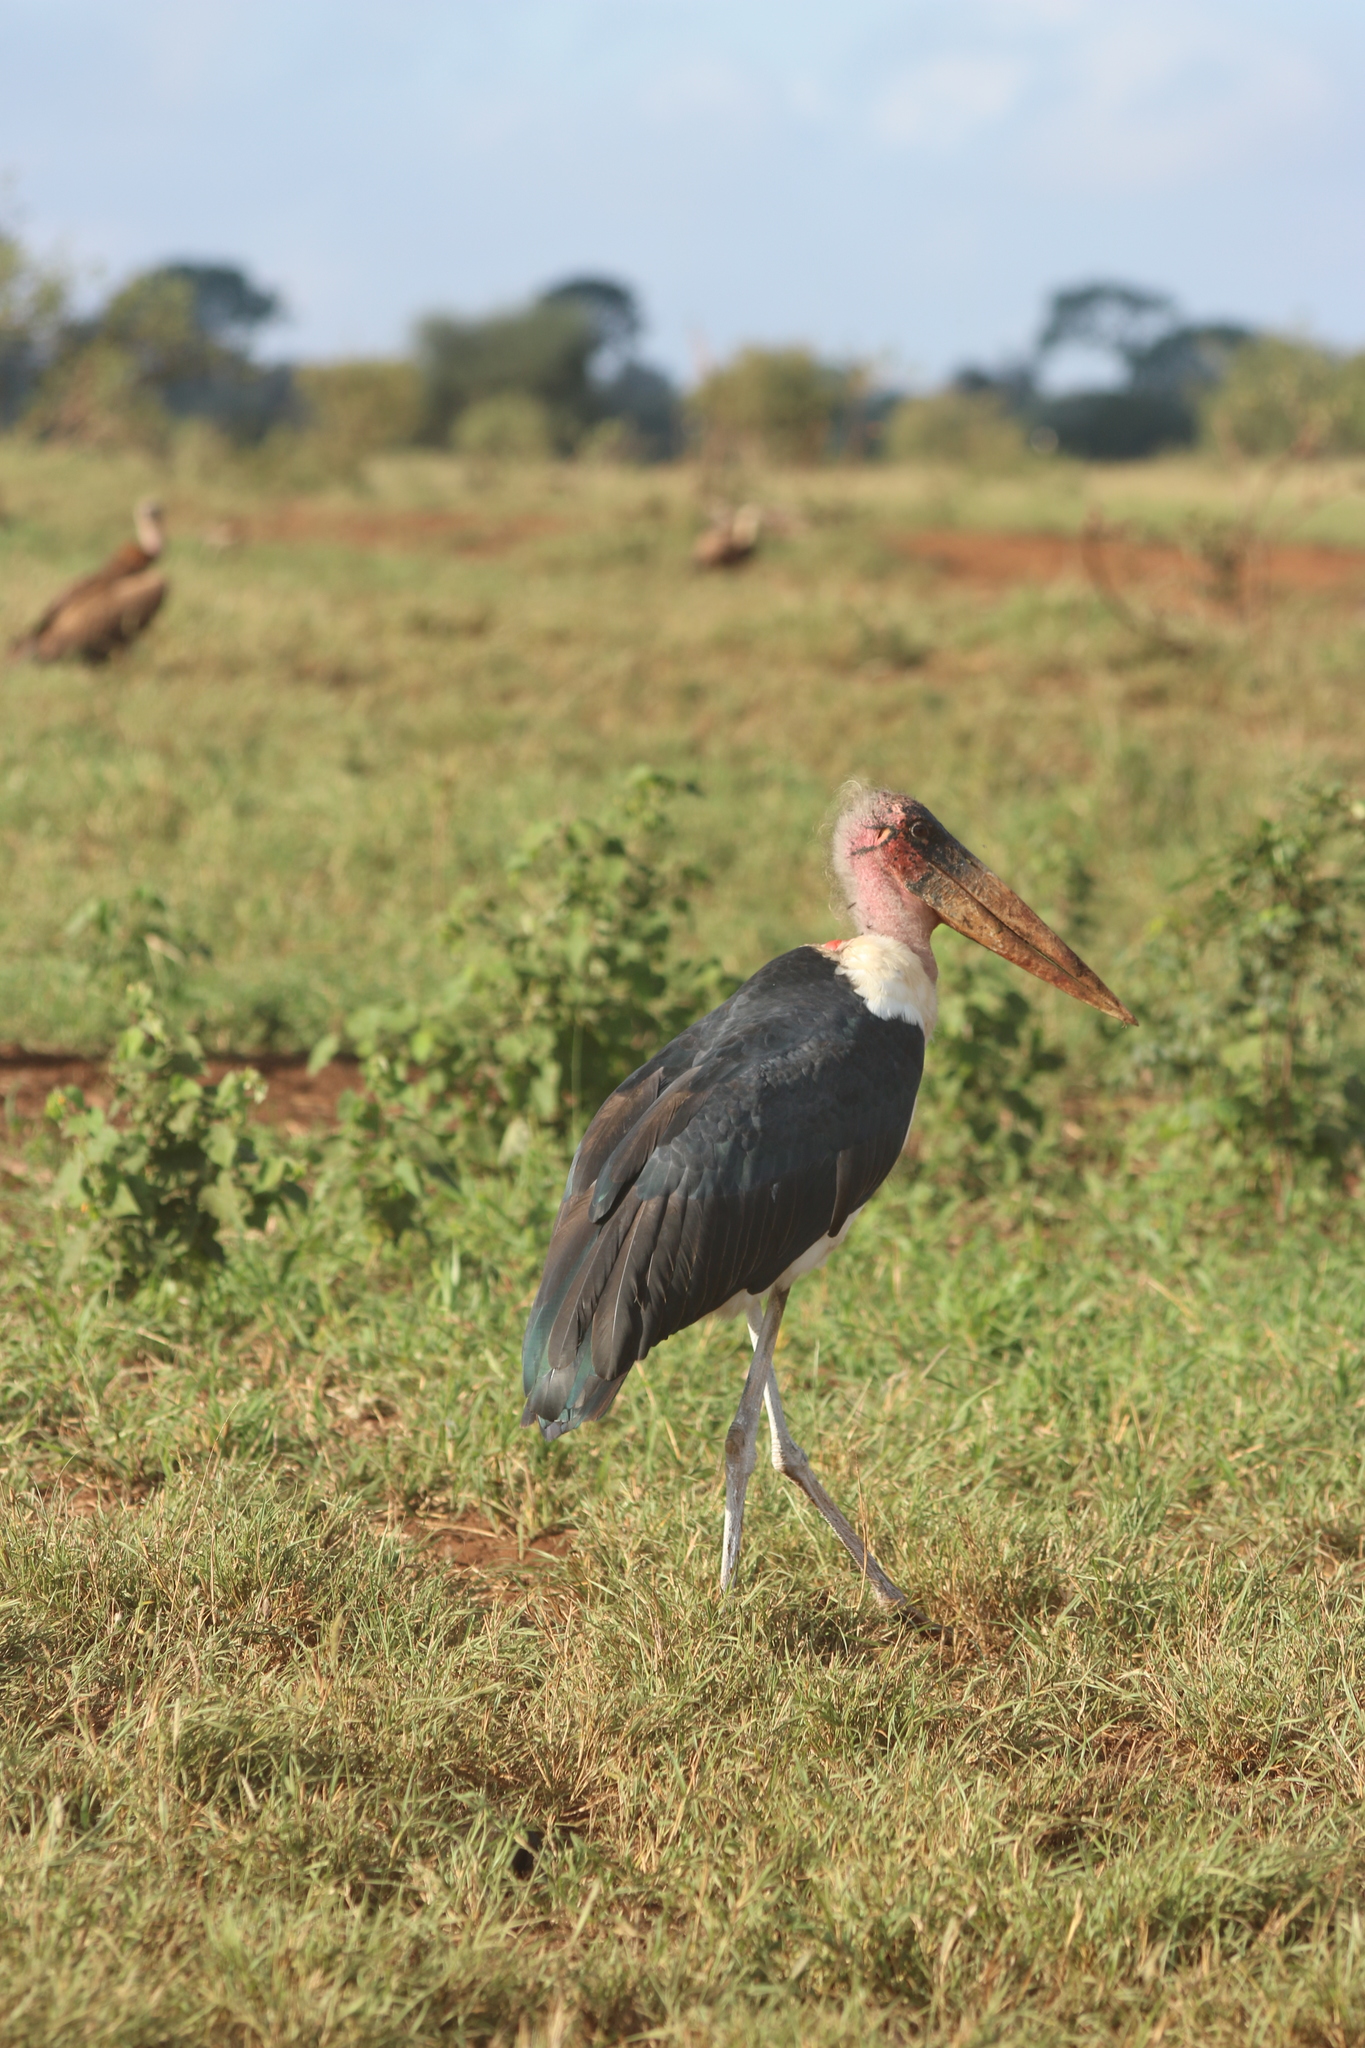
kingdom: Animalia
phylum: Chordata
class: Aves
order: Ciconiiformes
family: Ciconiidae
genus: Leptoptilos
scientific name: Leptoptilos crumenifer
